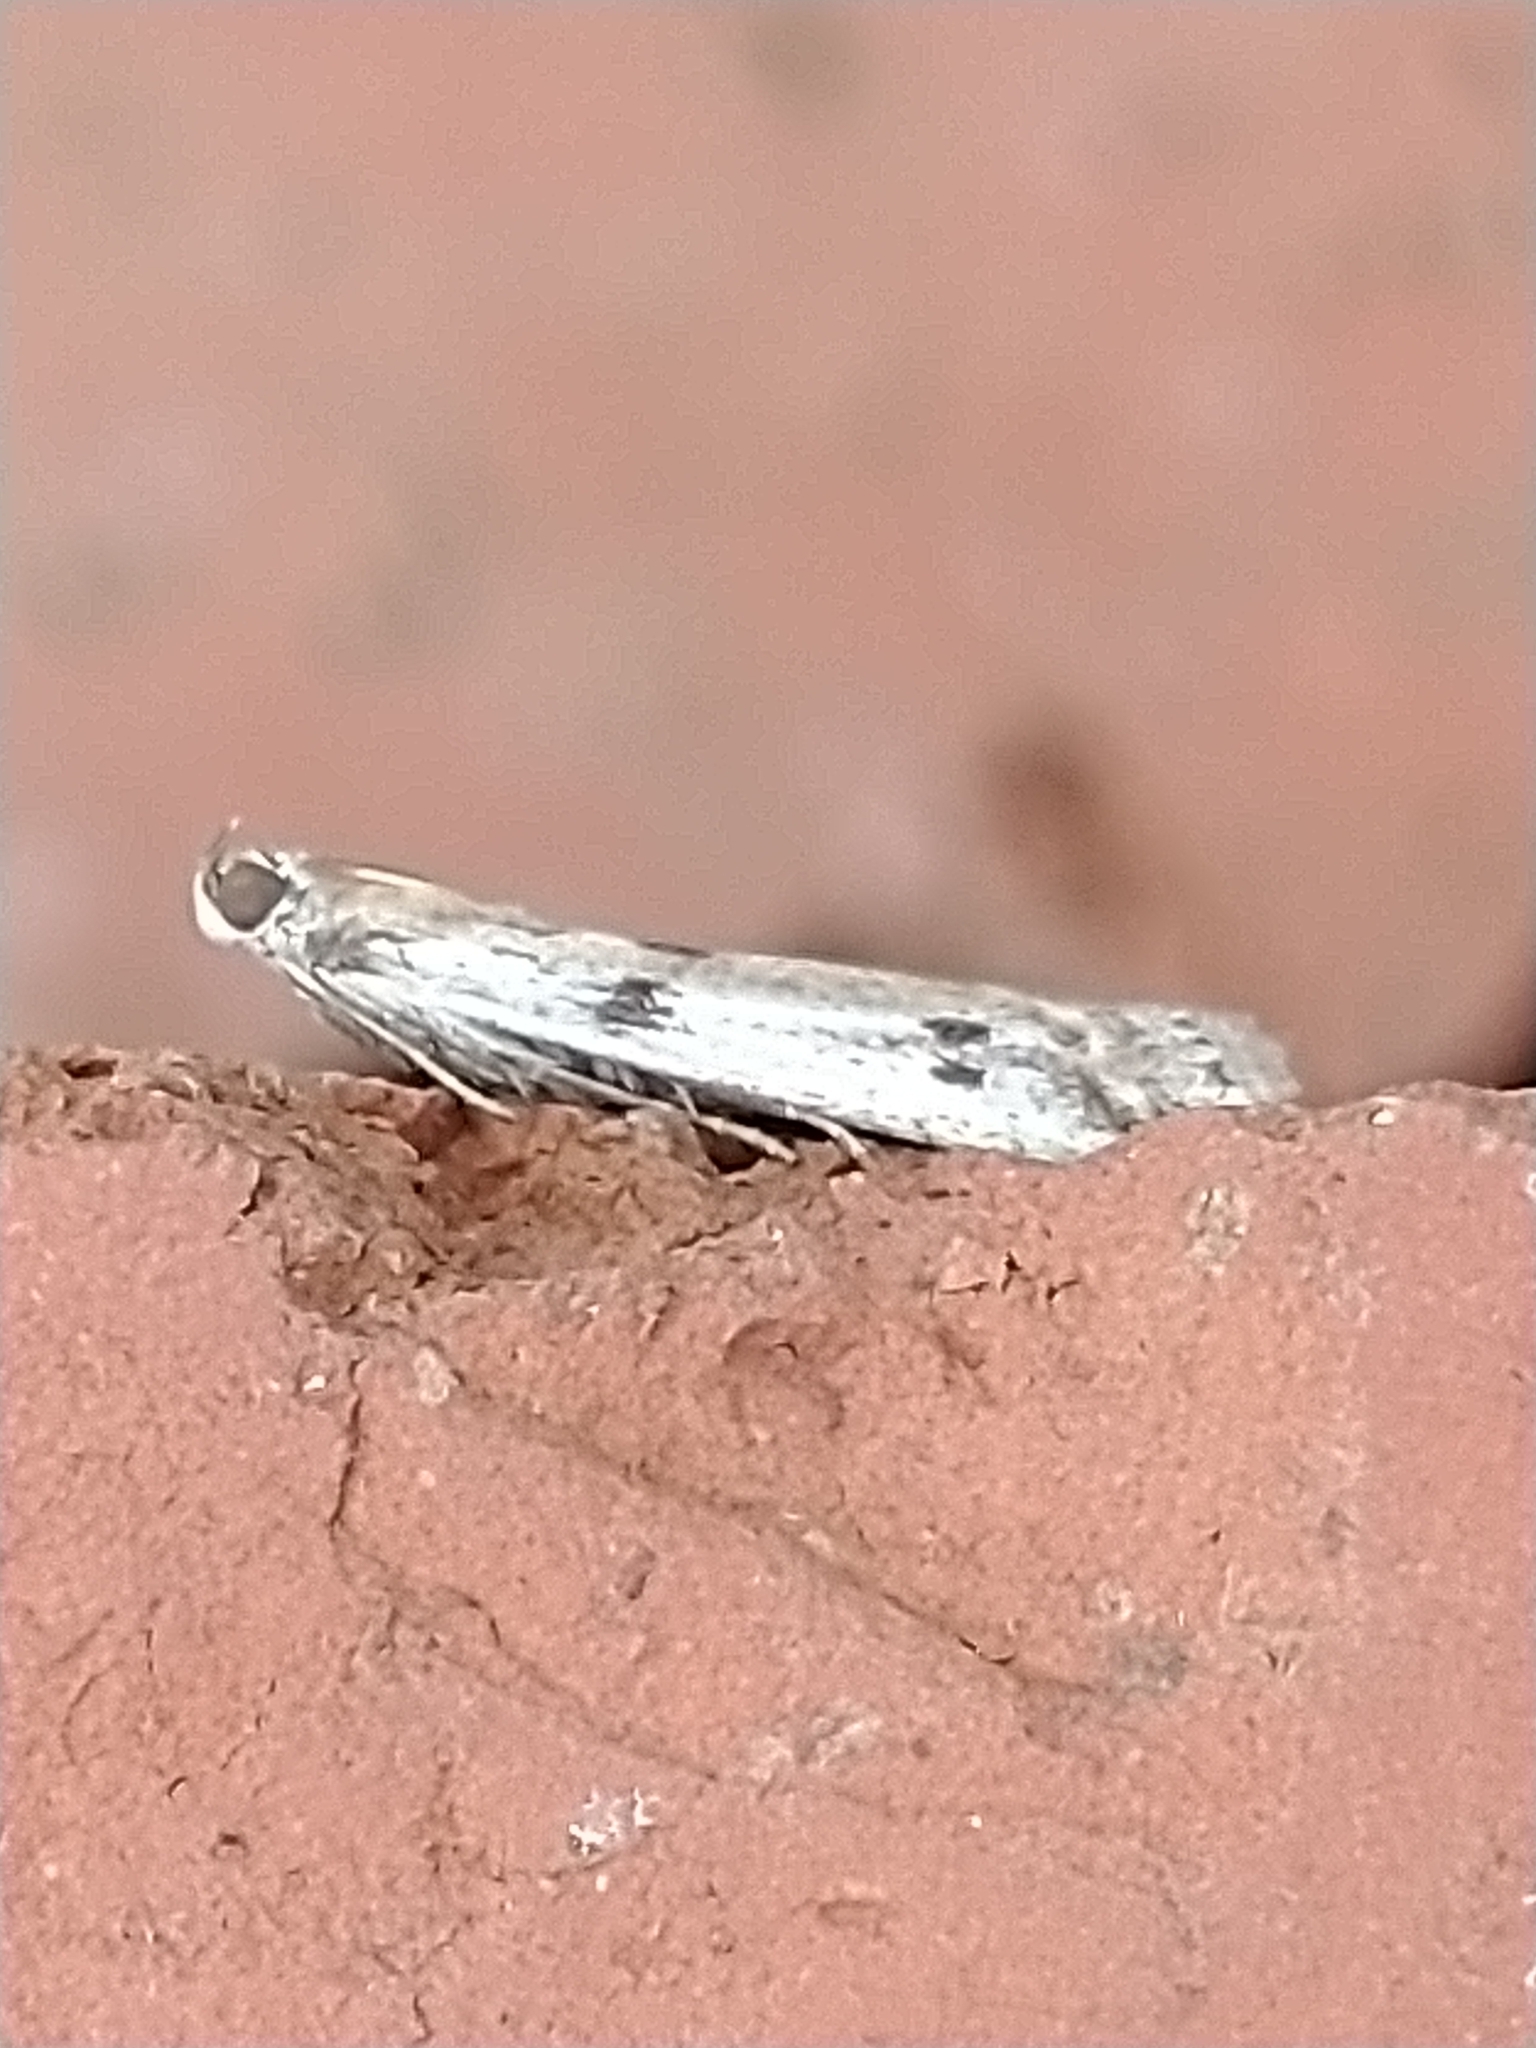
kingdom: Animalia
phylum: Arthropoda
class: Insecta
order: Lepidoptera
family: Pyralidae
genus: Phycitodes
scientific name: Phycitodes binaevella
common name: Ermine knot-horn
